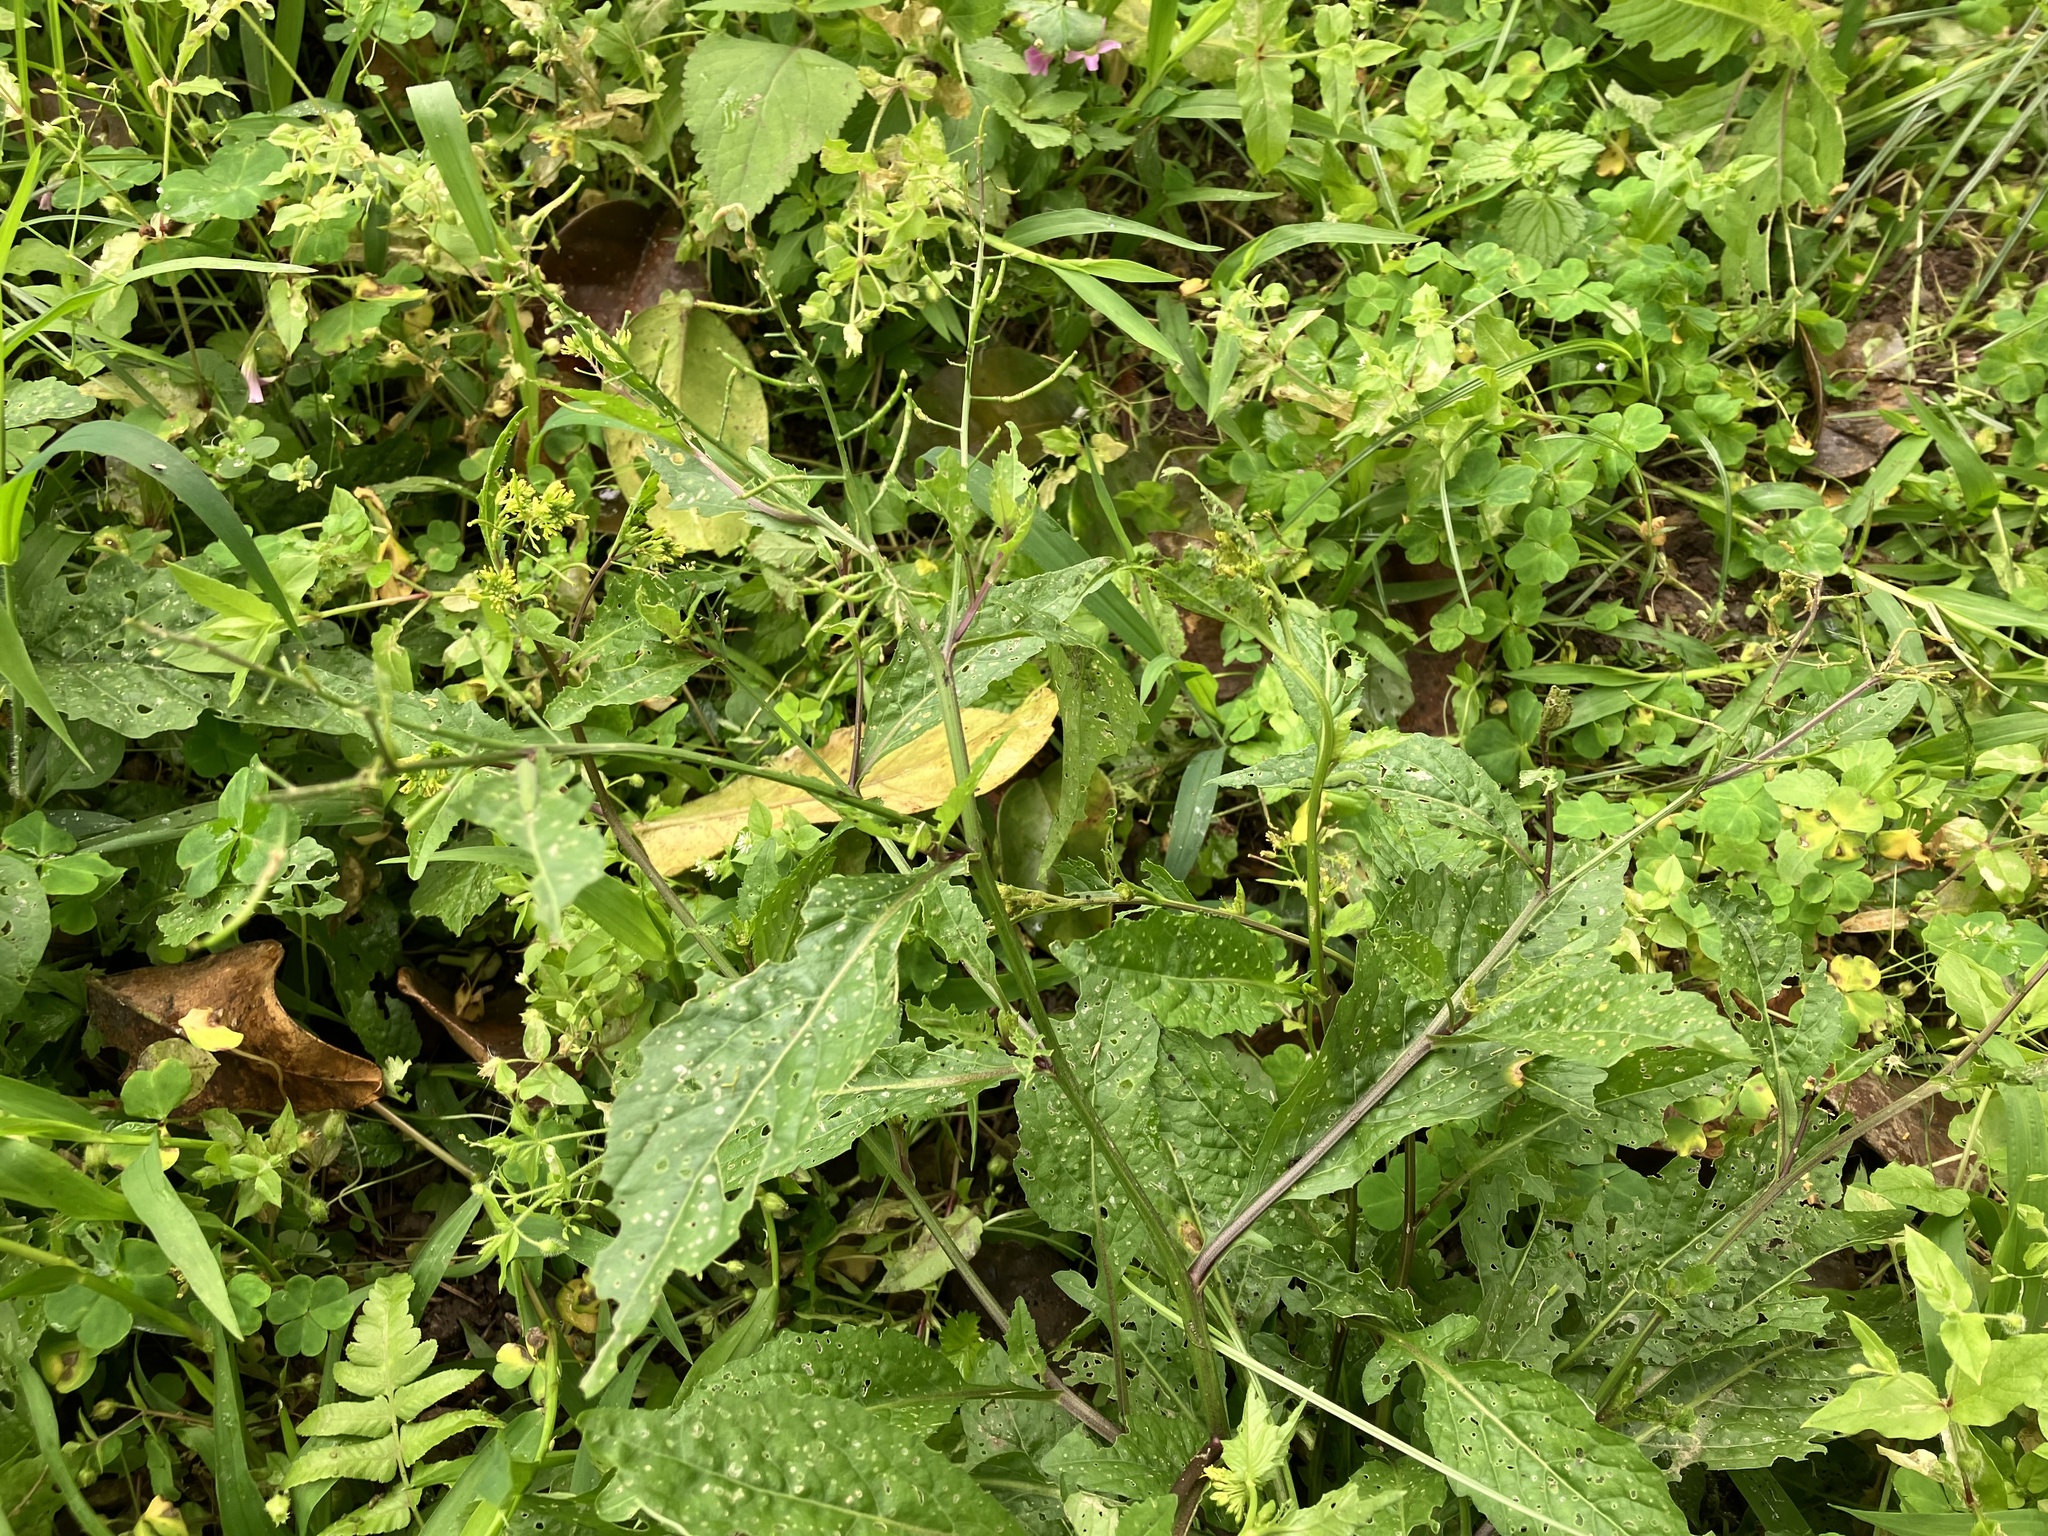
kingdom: Plantae
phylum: Tracheophyta
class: Magnoliopsida
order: Brassicales
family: Brassicaceae
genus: Rorippa
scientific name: Rorippa indica
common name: Variableleaf yellowcress
